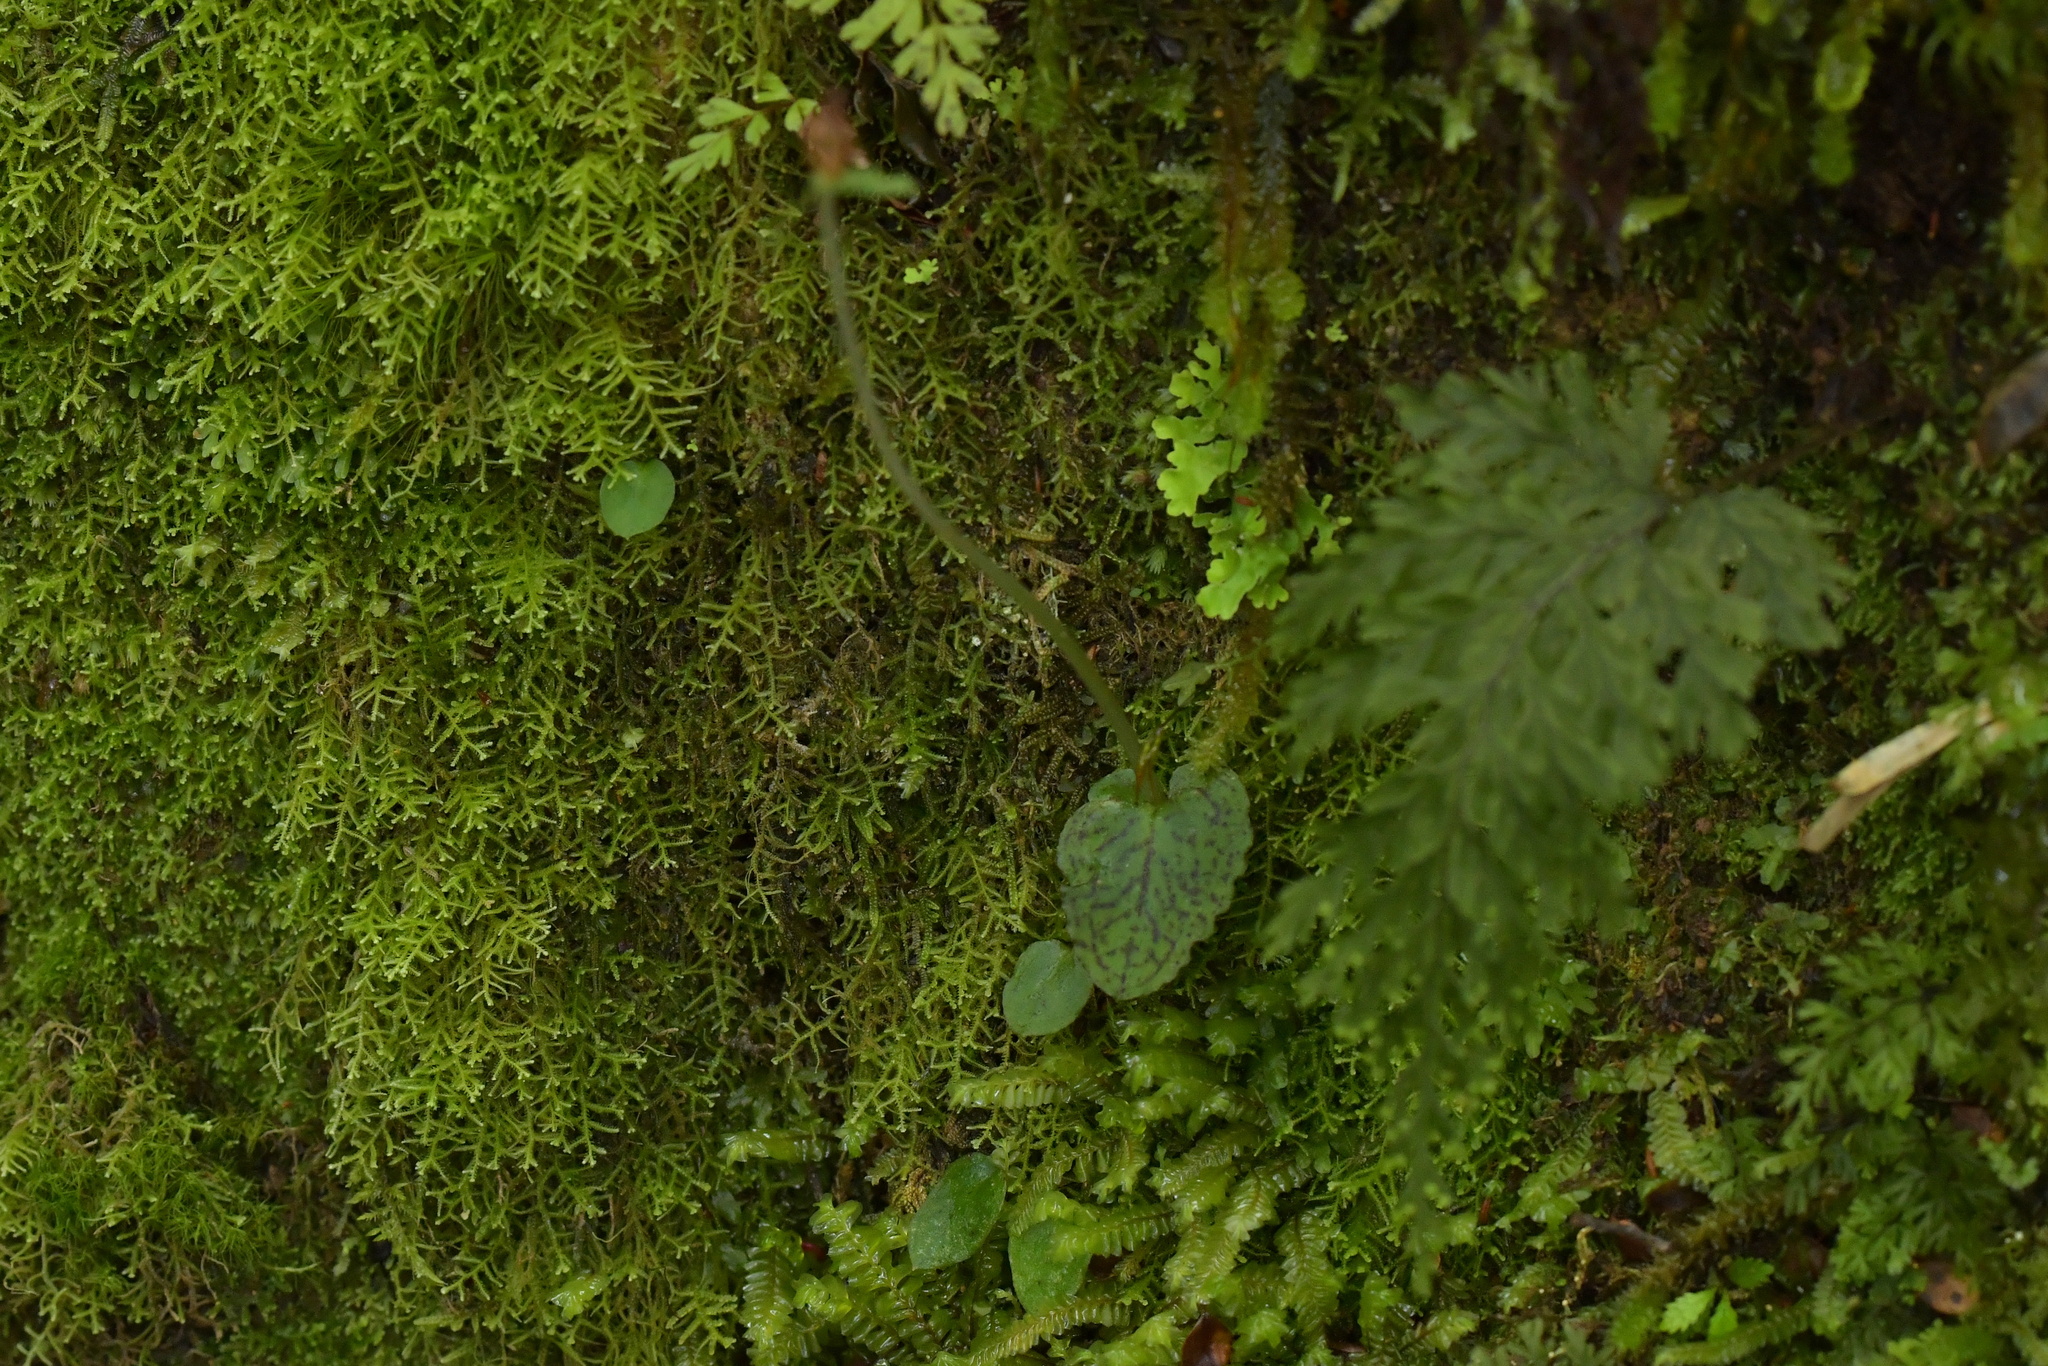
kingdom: Plantae
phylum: Tracheophyta
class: Liliopsida
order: Asparagales
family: Orchidaceae
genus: Corybas
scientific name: Corybas oblongus
